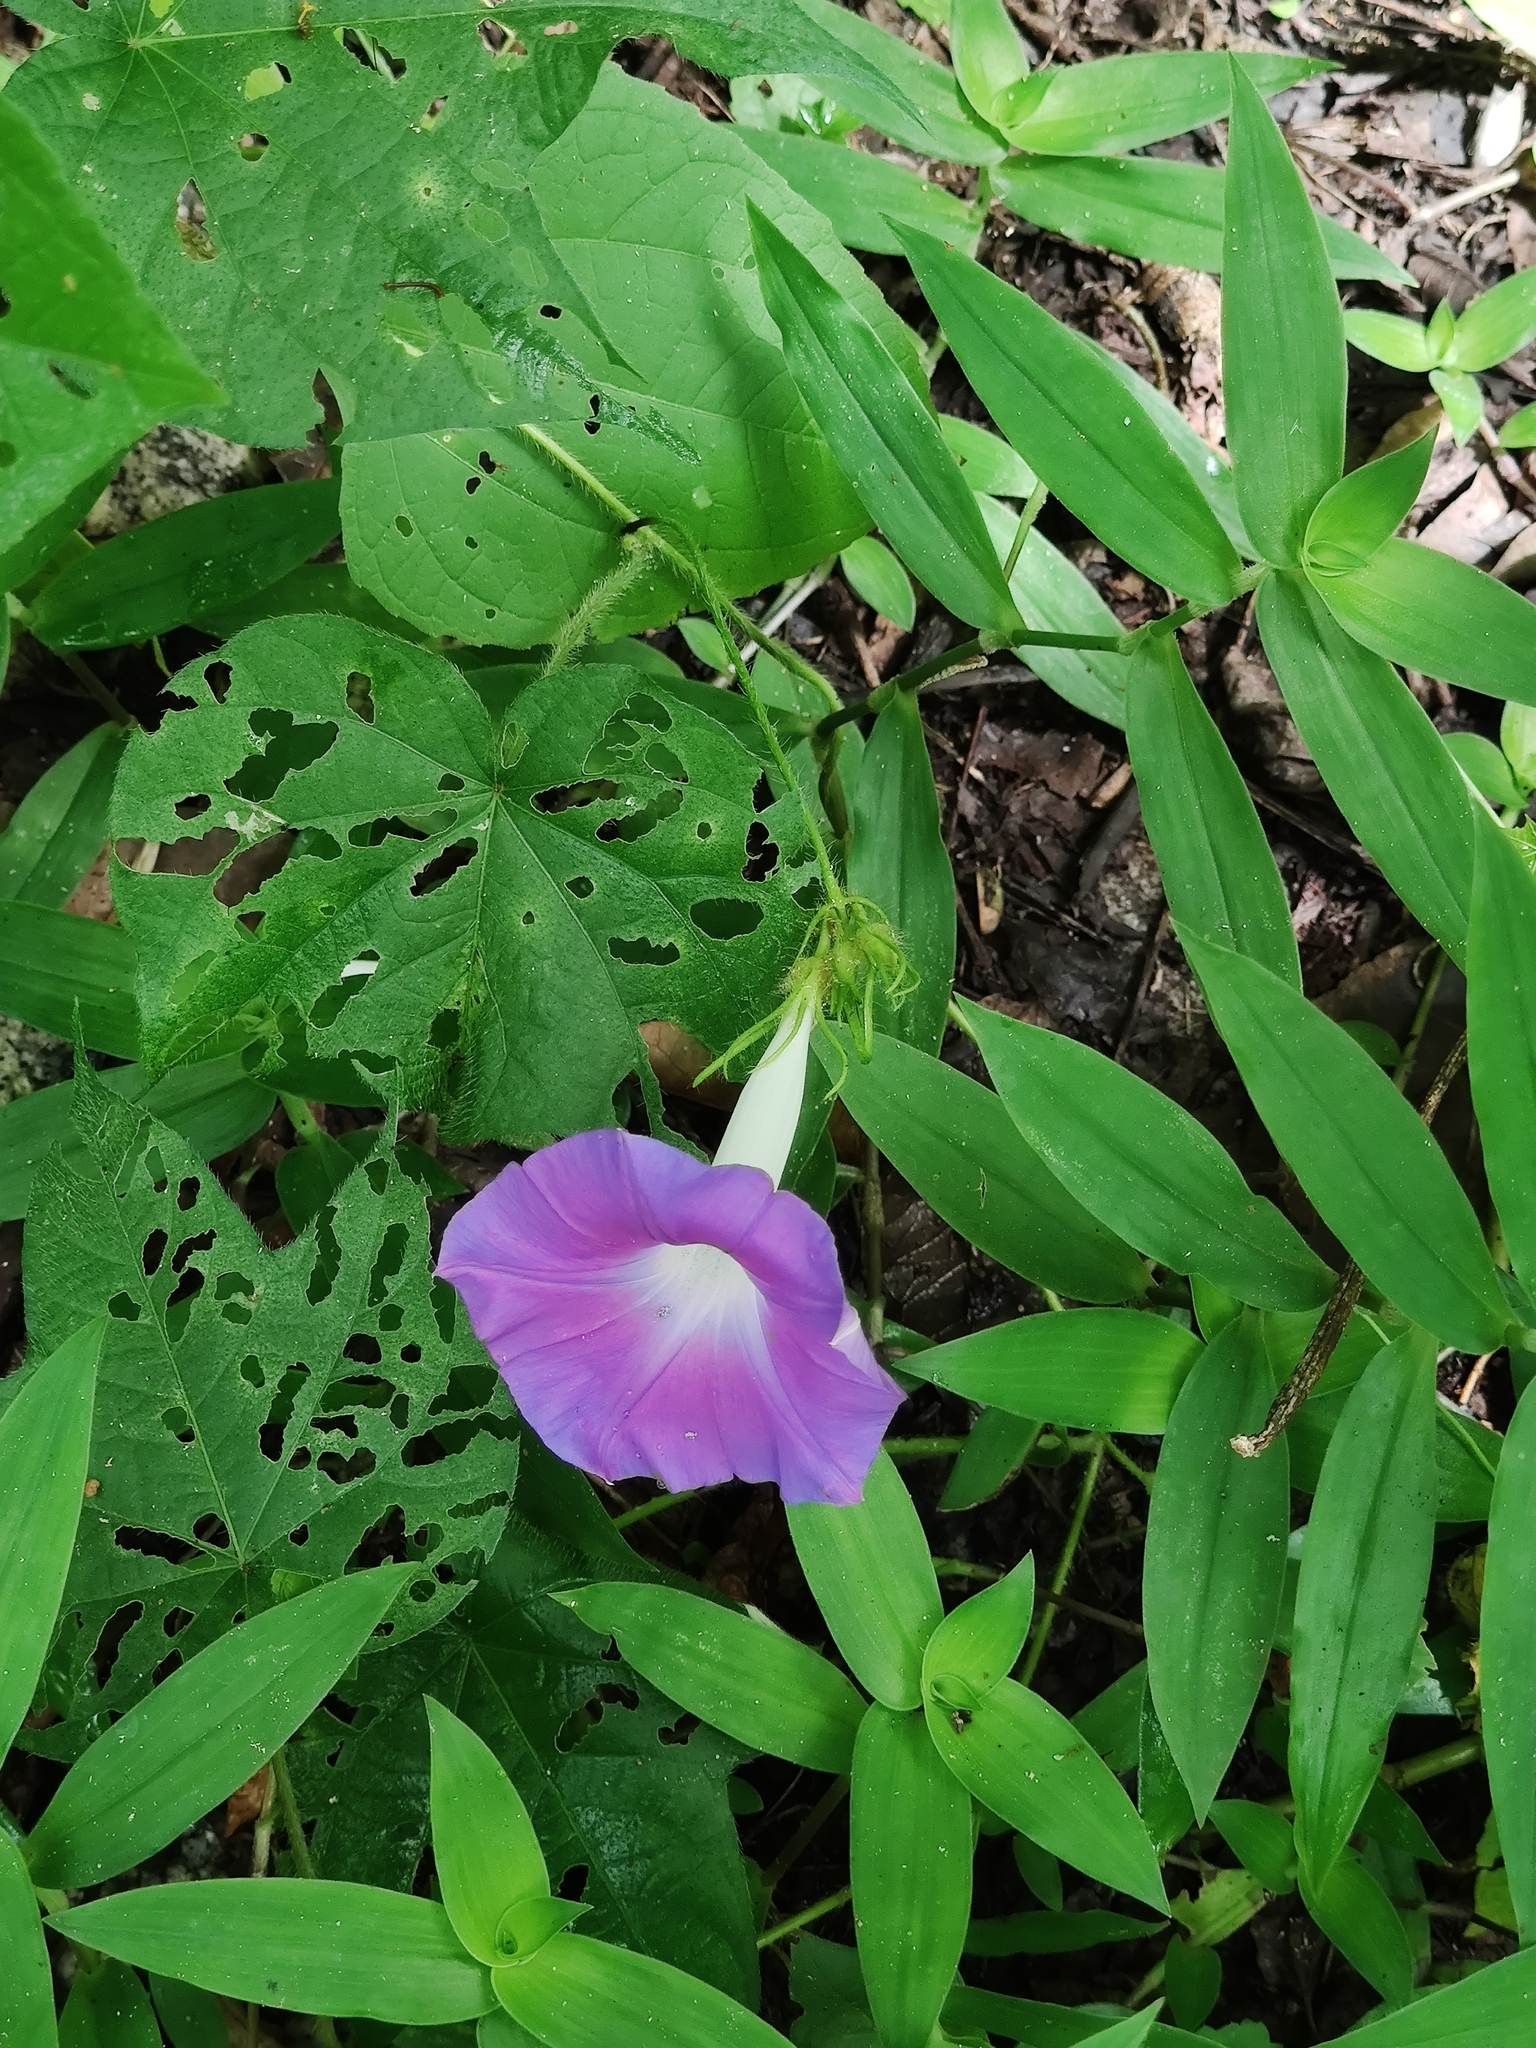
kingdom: Plantae
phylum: Tracheophyta
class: Magnoliopsida
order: Solanales
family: Convolvulaceae
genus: Ipomoea
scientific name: Ipomoea nil
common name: Japanese morning-glory
